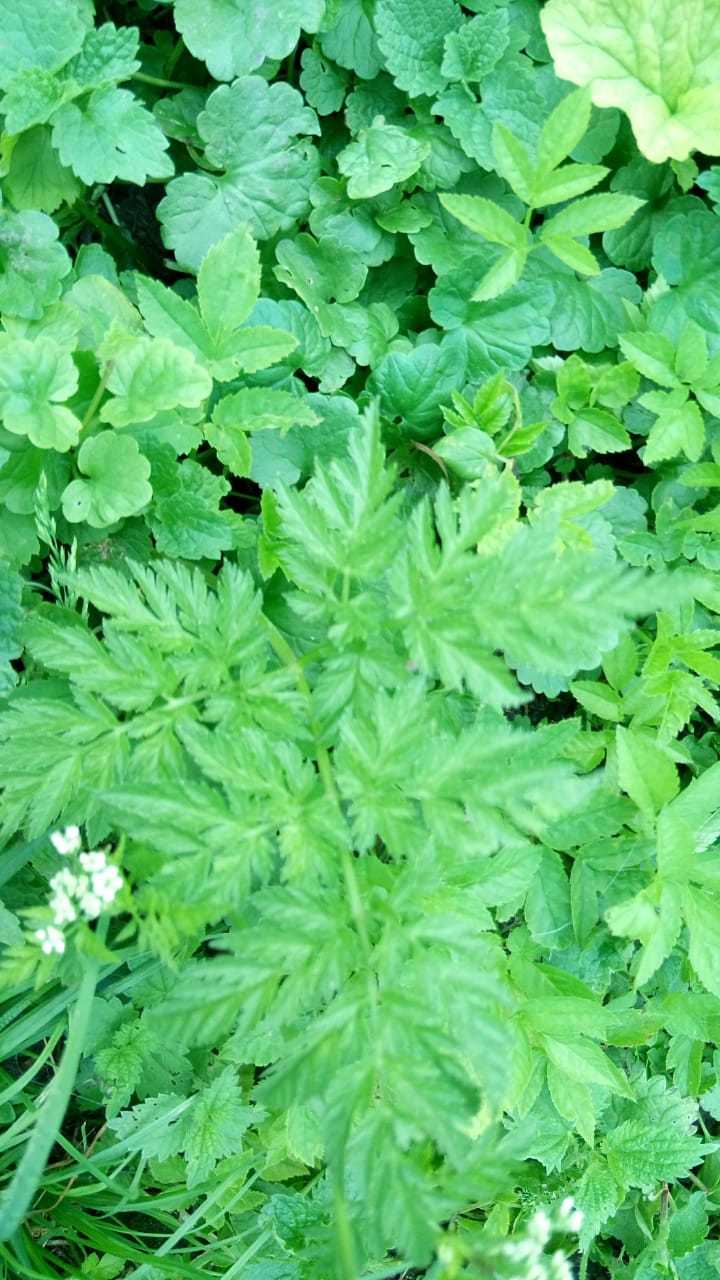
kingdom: Plantae
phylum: Tracheophyta
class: Magnoliopsida
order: Apiales
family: Apiaceae
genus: Anthriscus
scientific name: Anthriscus sylvestris
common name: Cow parsley
